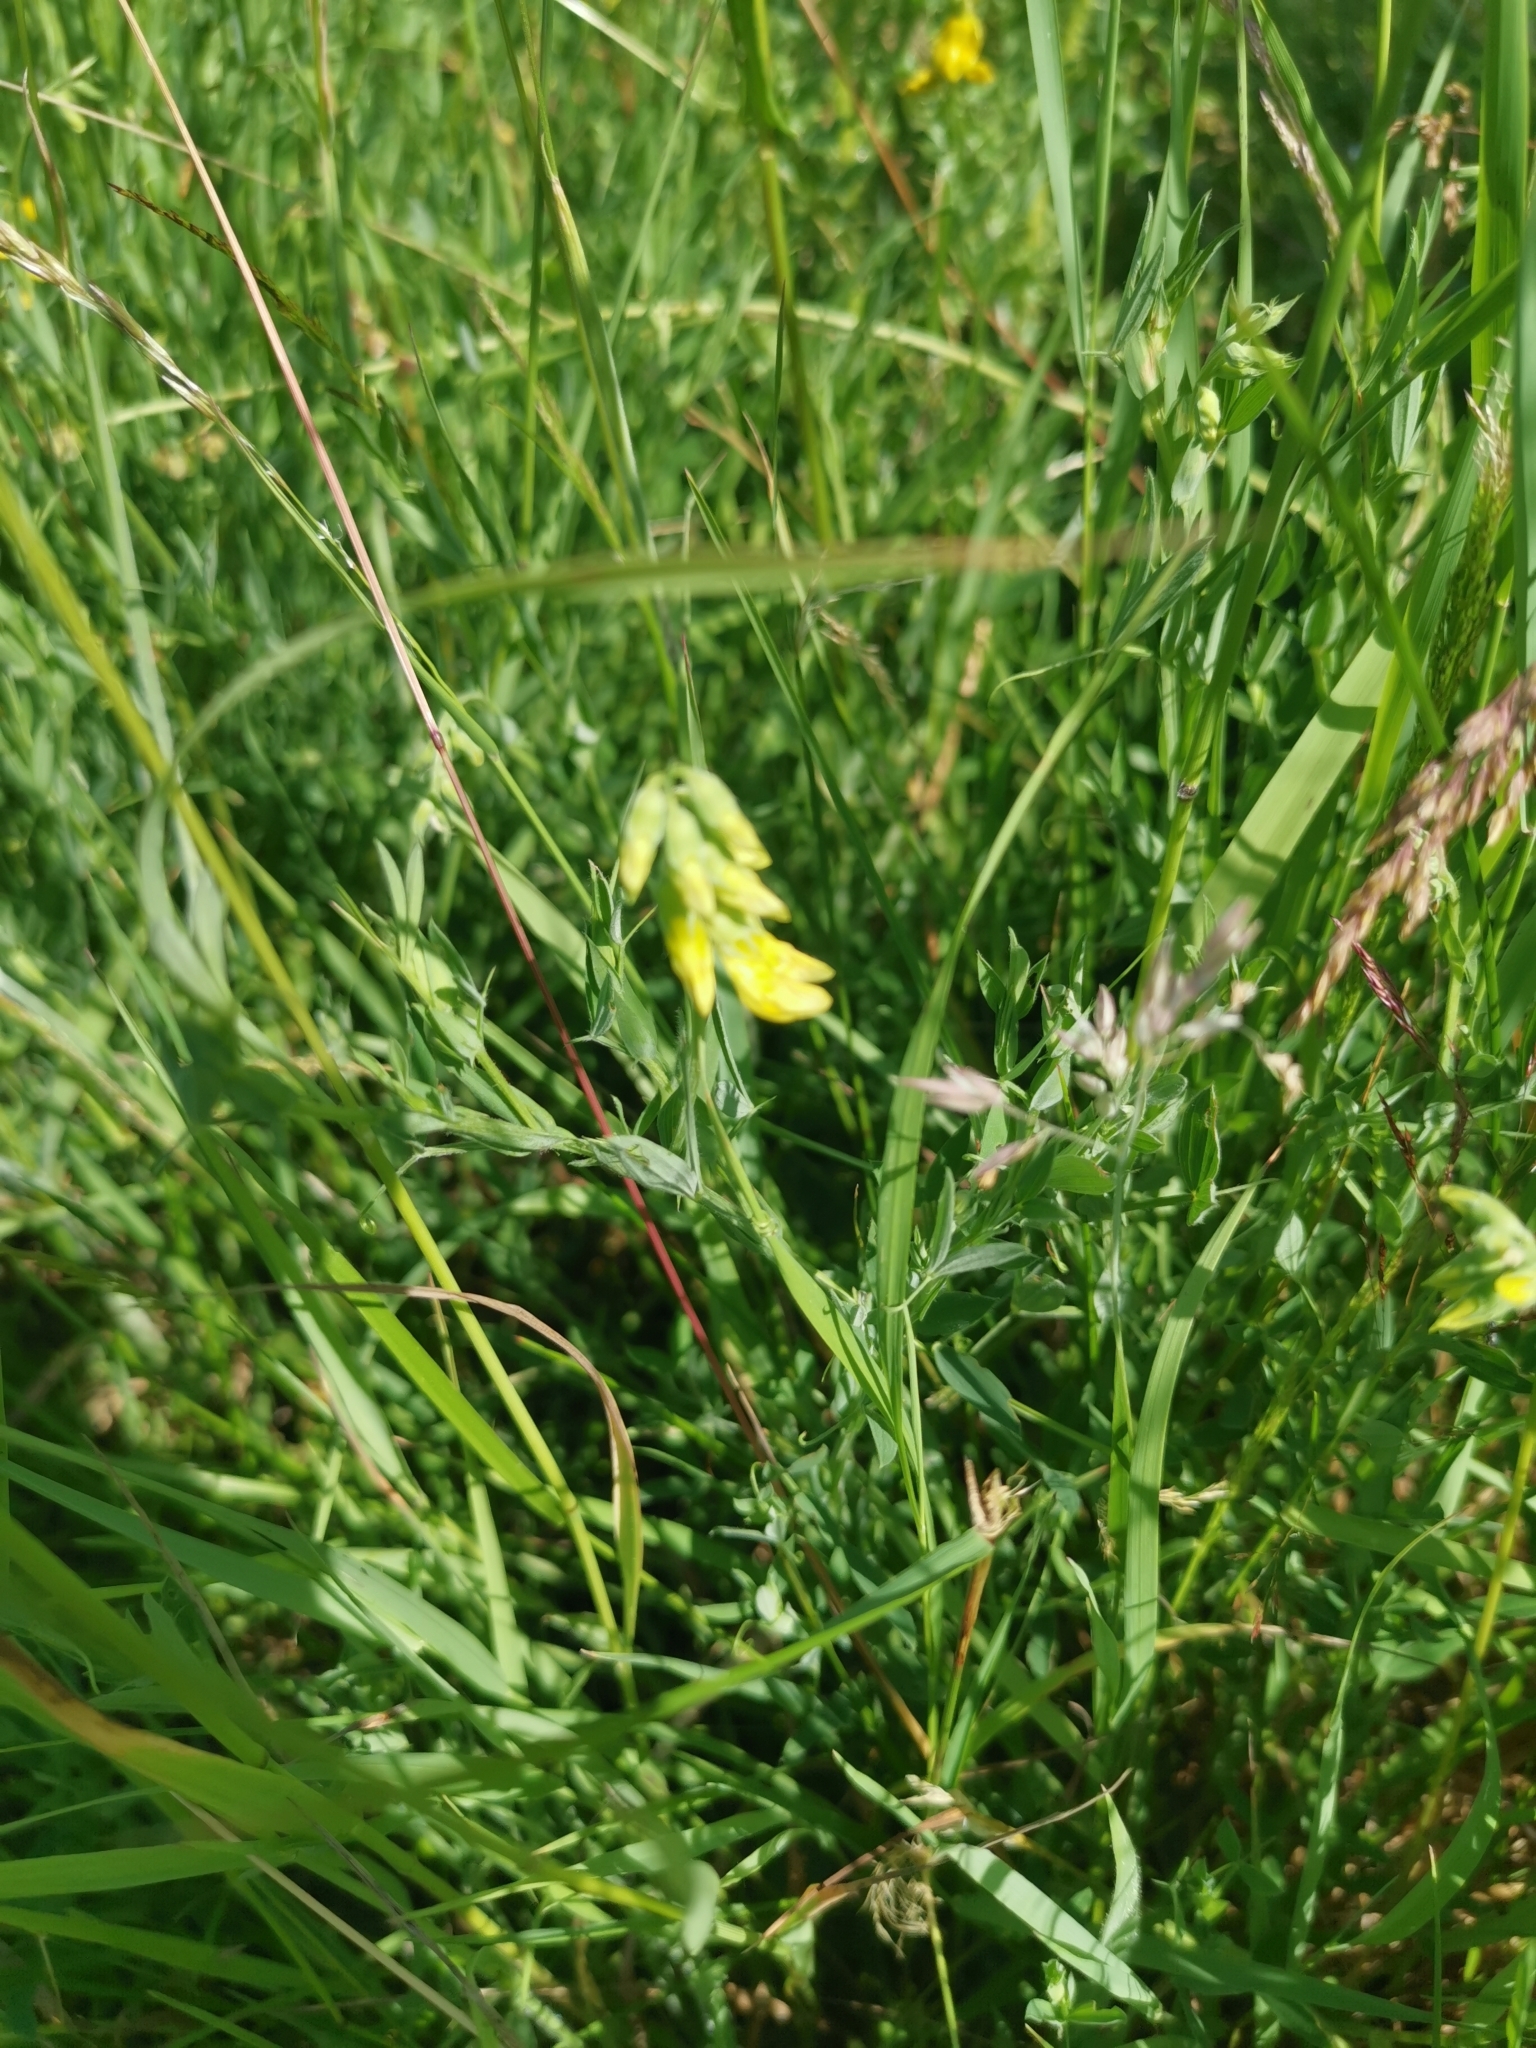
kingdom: Plantae
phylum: Tracheophyta
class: Magnoliopsida
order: Fabales
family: Fabaceae
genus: Lathyrus
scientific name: Lathyrus pratensis
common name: Meadow vetchling
